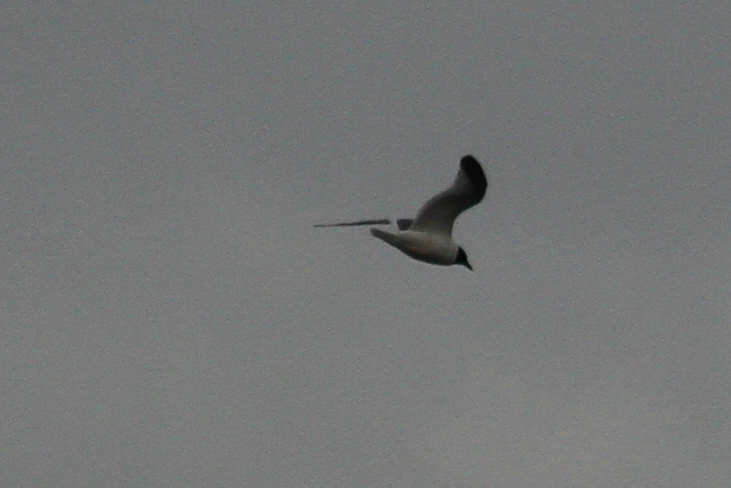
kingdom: Animalia
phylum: Chordata
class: Aves
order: Charadriiformes
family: Laridae
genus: Xema
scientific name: Xema sabini
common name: Sabine's gull
